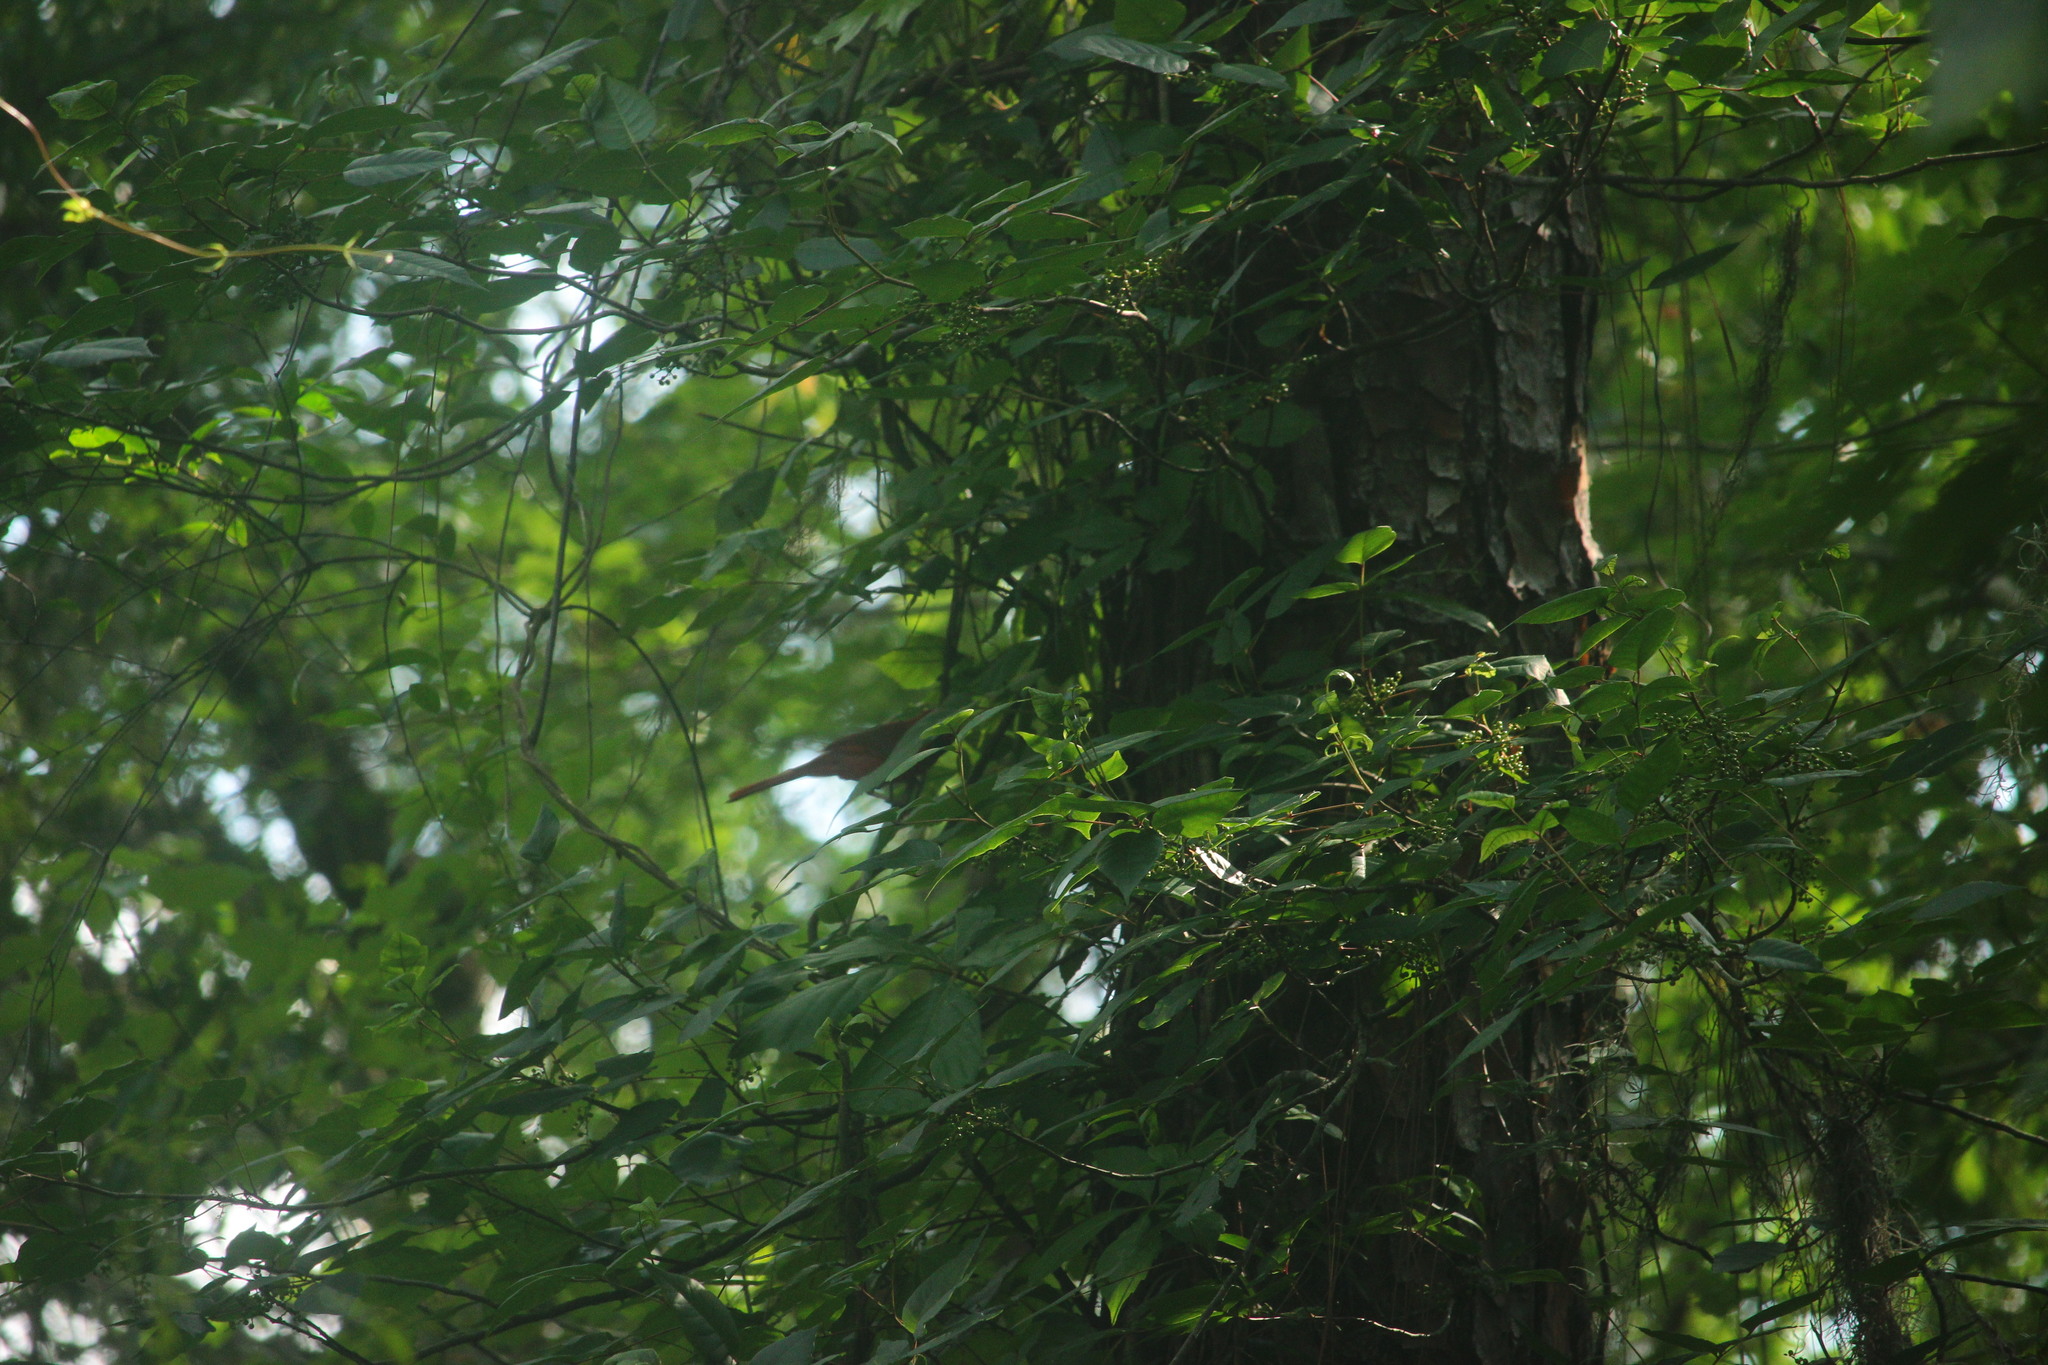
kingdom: Animalia
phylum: Chordata
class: Aves
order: Passeriformes
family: Cardinalidae
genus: Cardinalis
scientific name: Cardinalis cardinalis
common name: Northern cardinal
